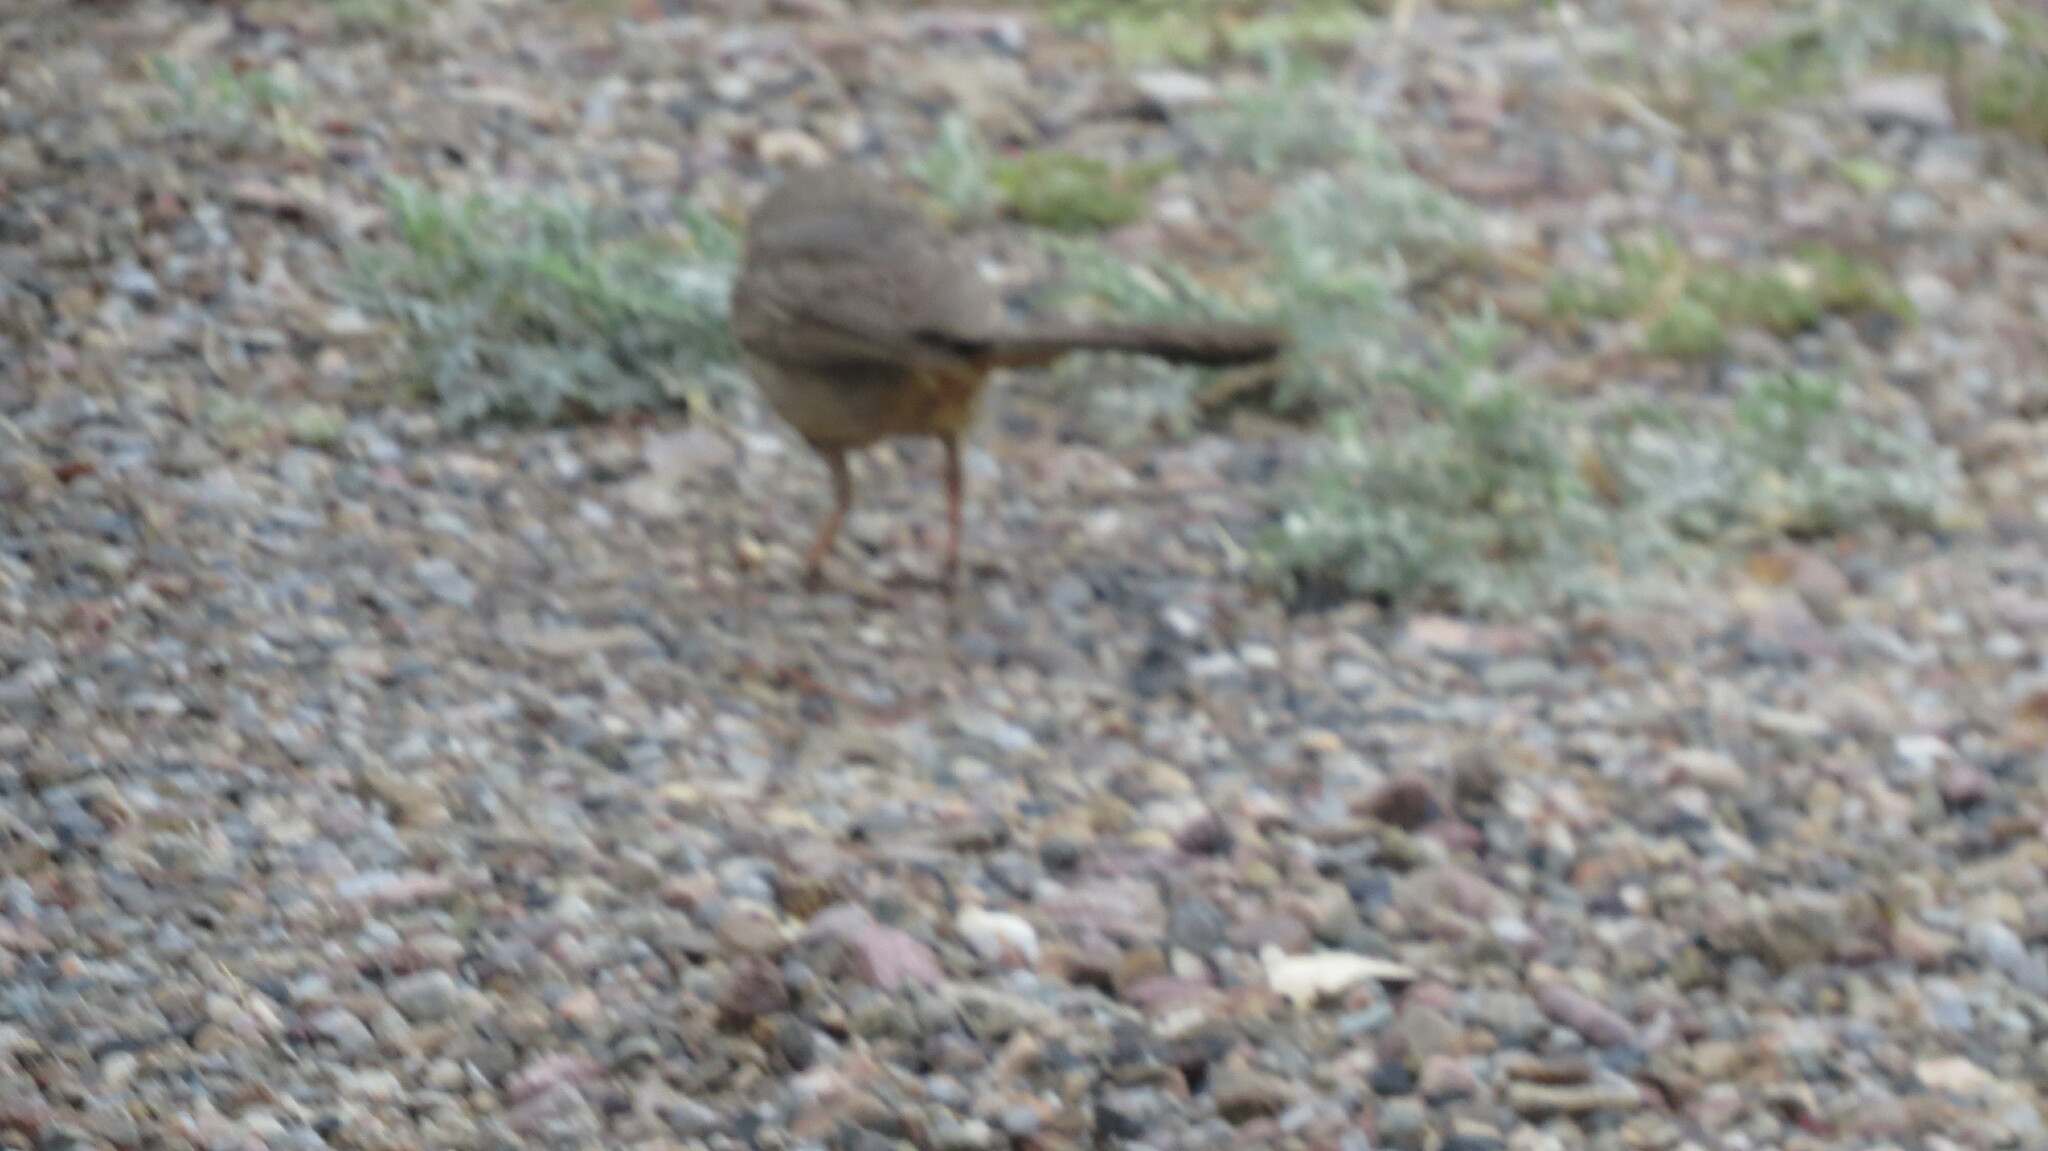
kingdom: Animalia
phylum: Chordata
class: Aves
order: Passeriformes
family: Passerellidae
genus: Melozone
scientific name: Melozone fusca
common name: Canyon towhee
